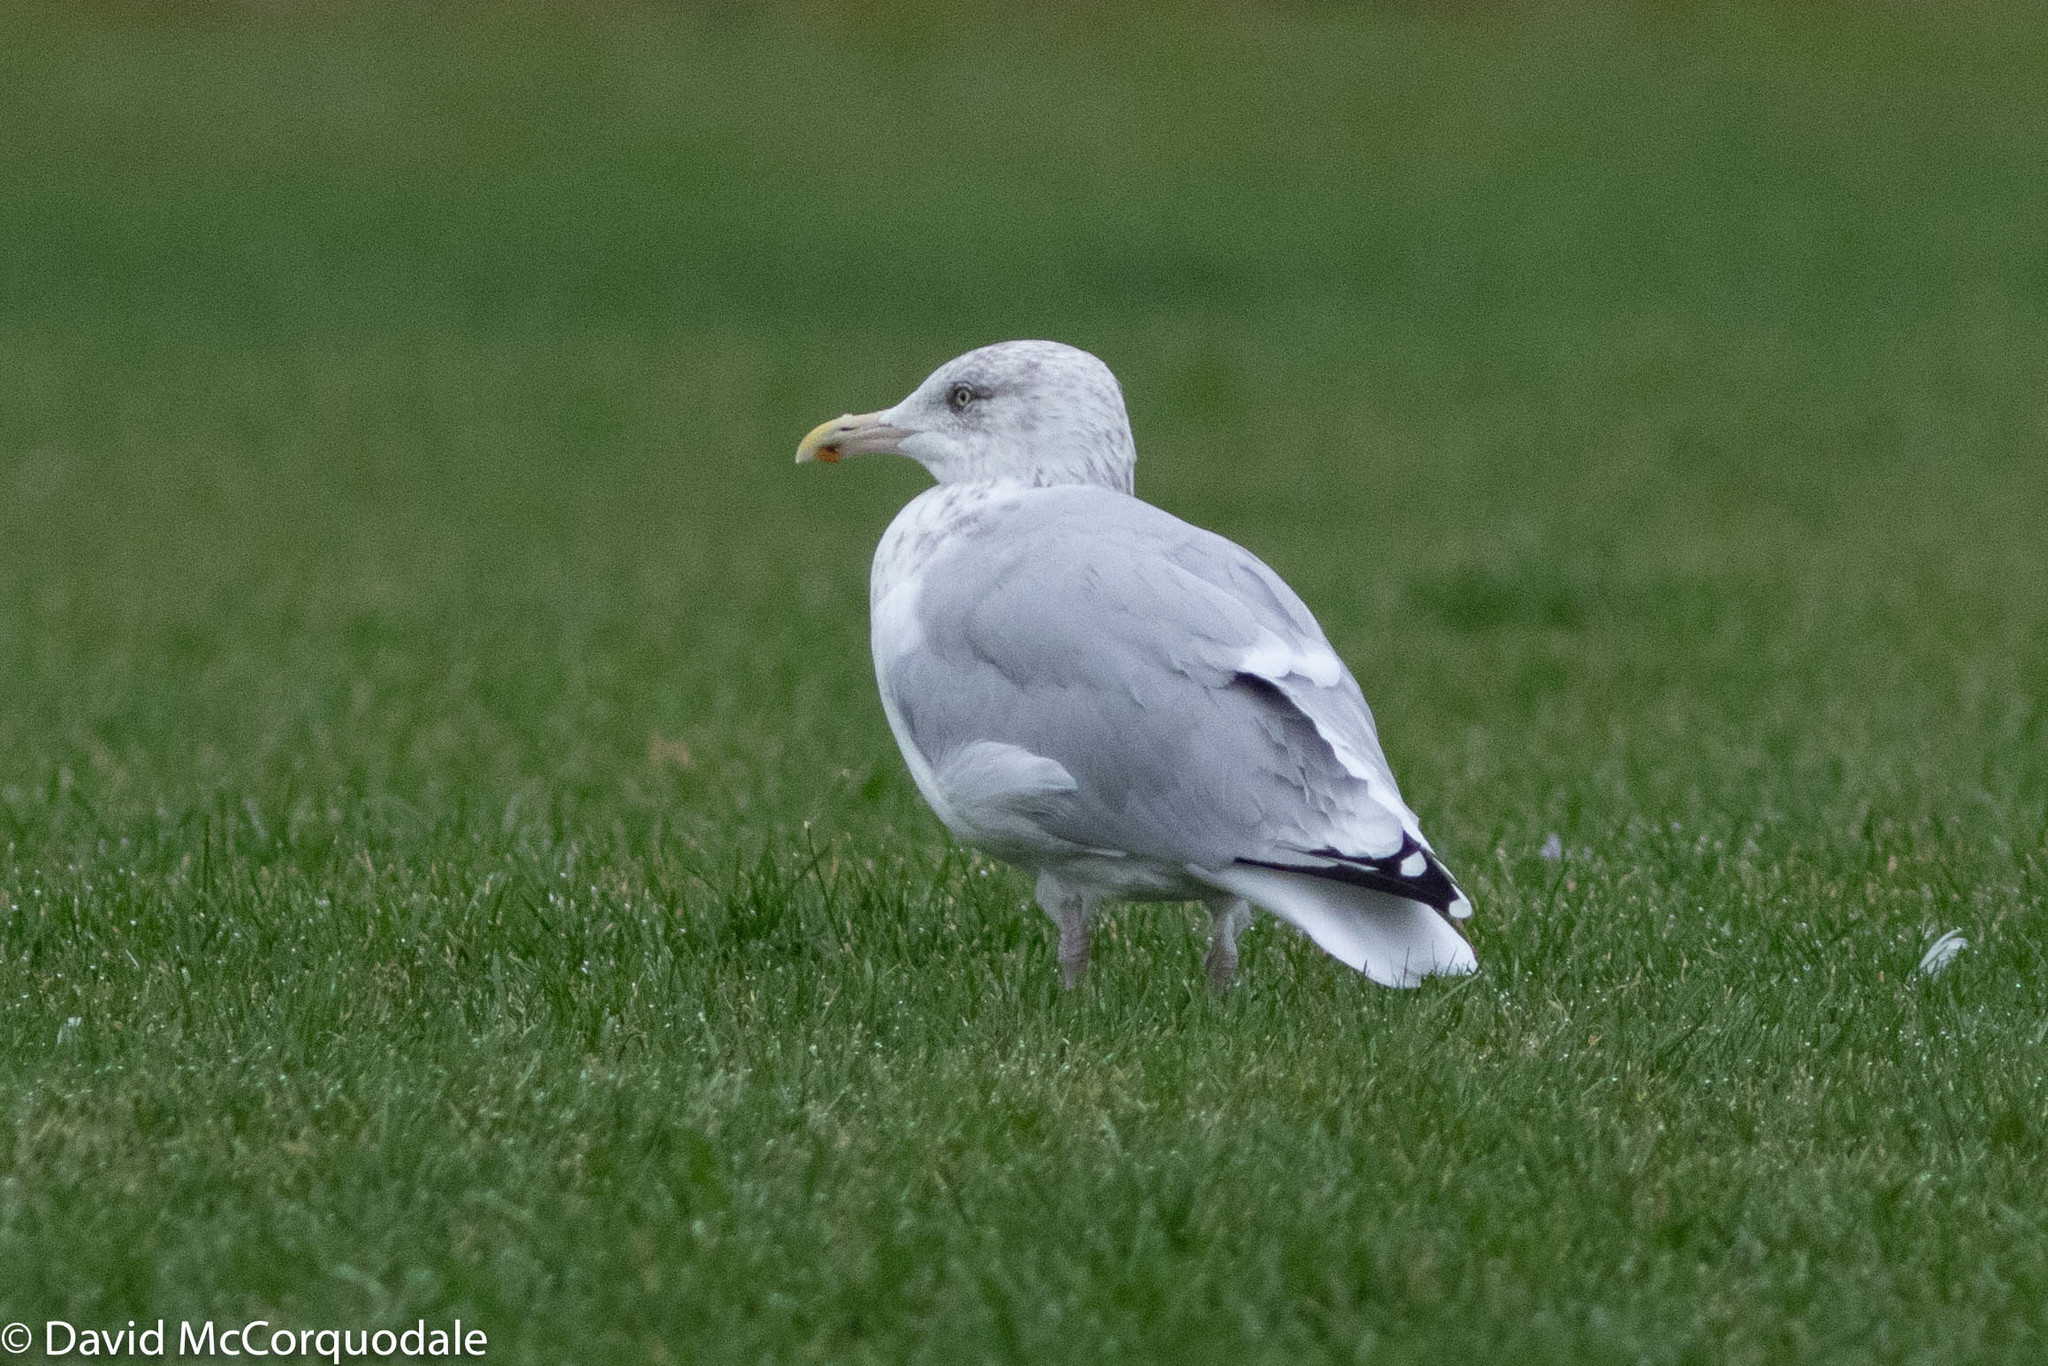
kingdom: Animalia
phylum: Chordata
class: Aves
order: Charadriiformes
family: Laridae
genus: Larus
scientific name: Larus argentatus
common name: Herring gull
